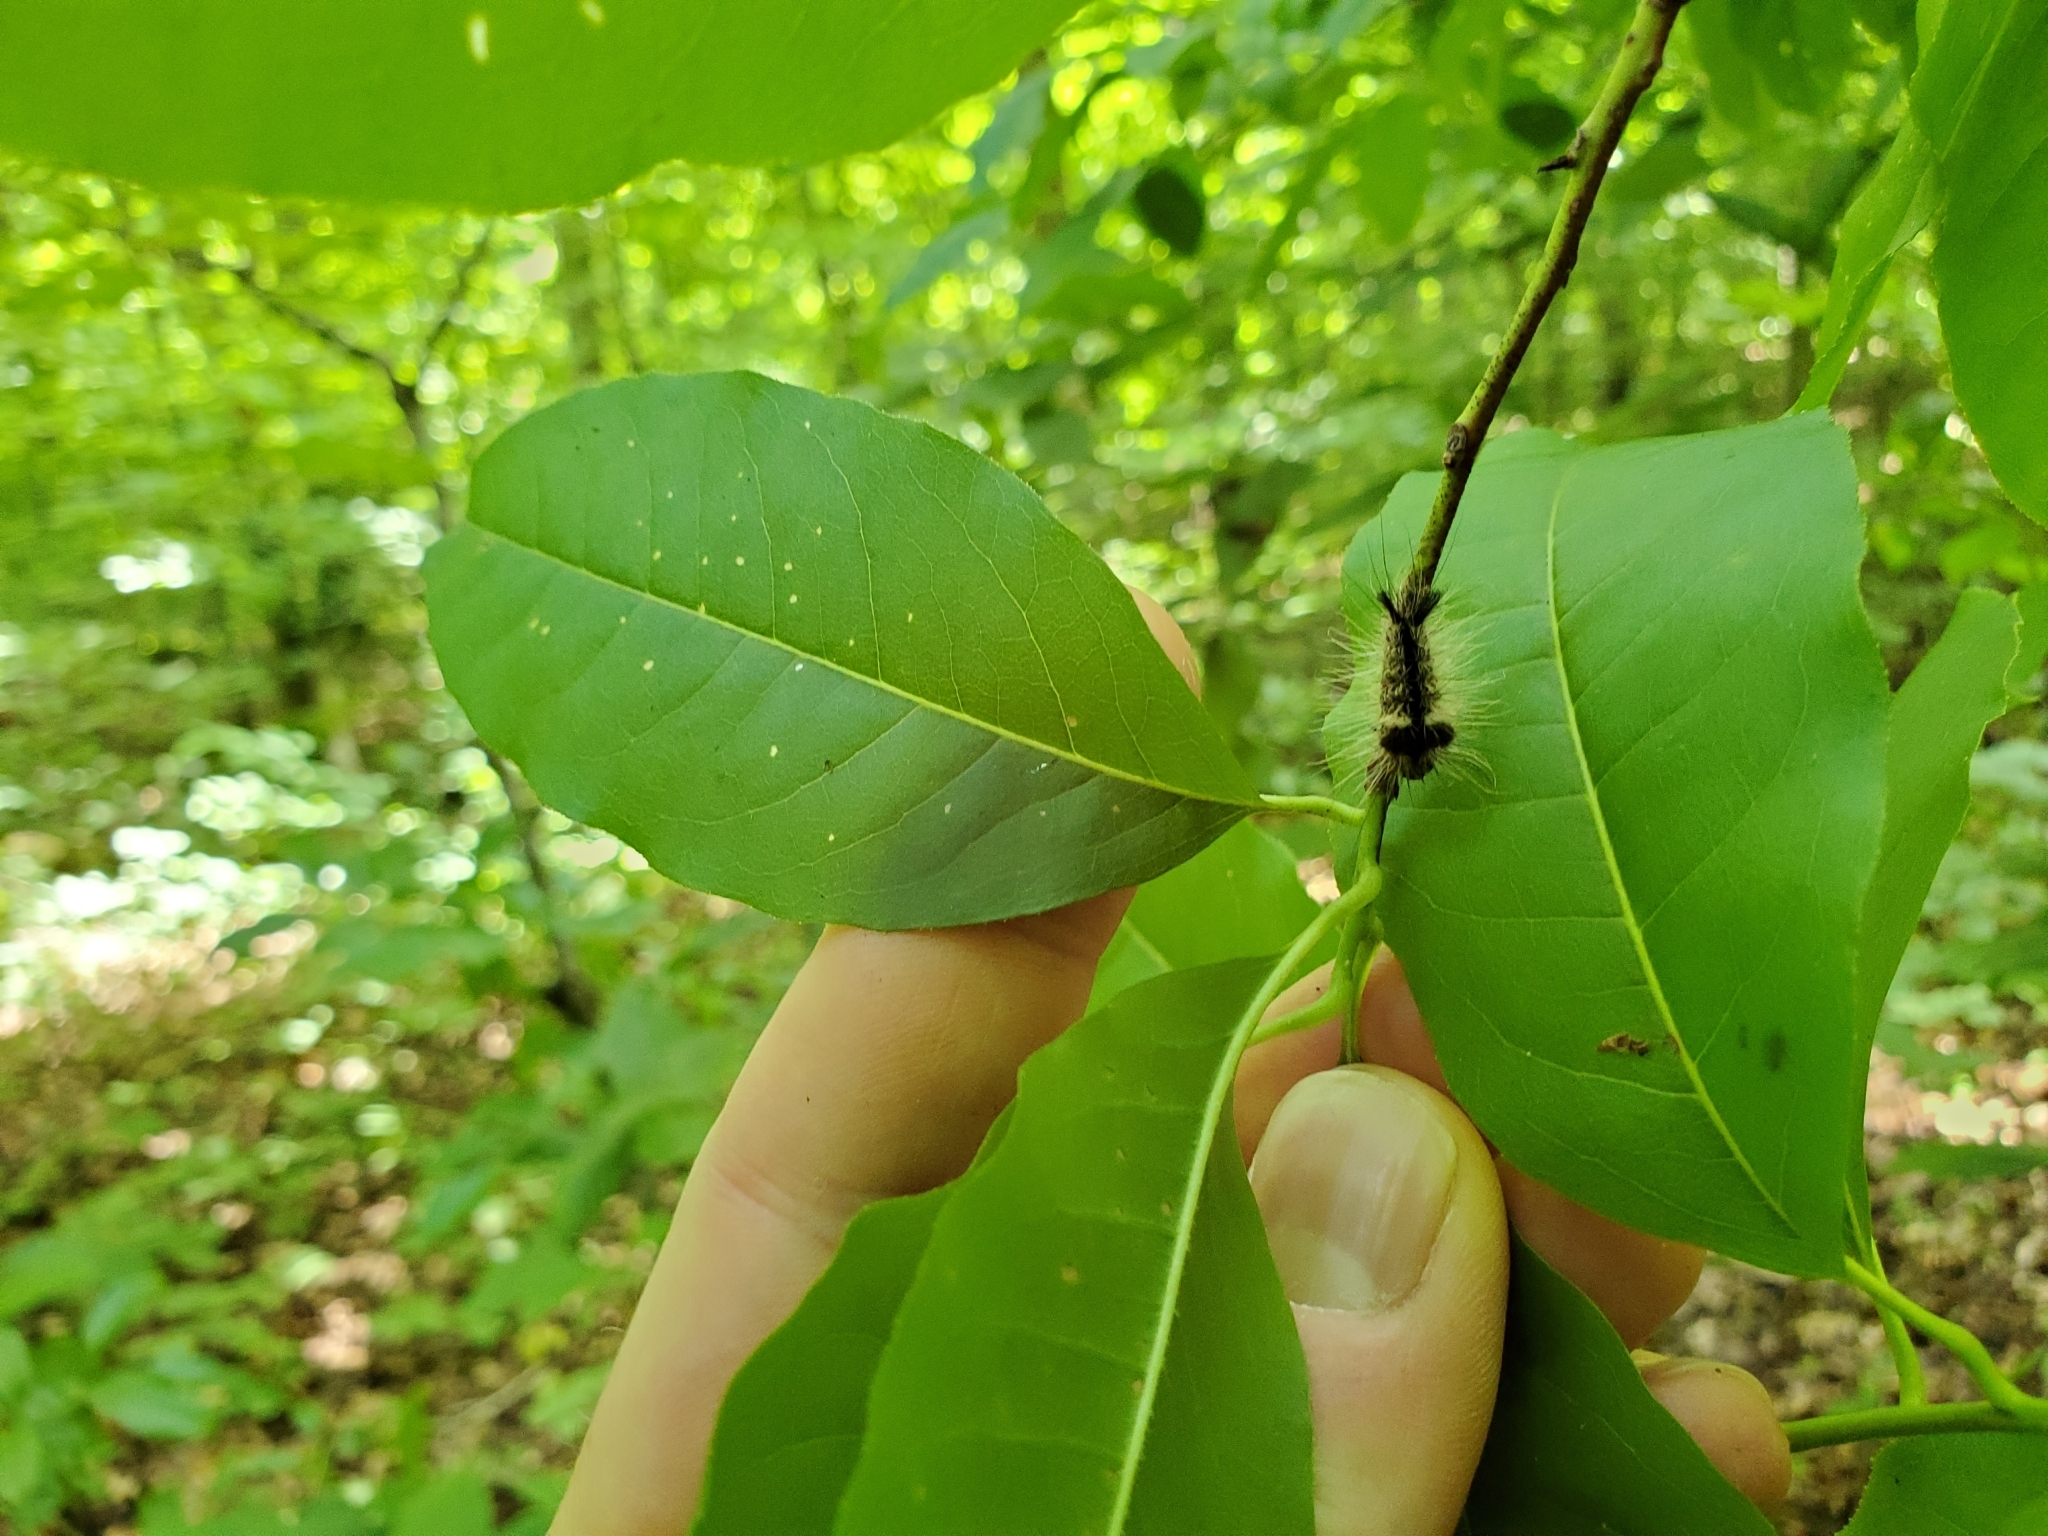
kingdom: Animalia
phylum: Arthropoda
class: Insecta
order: Lepidoptera
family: Noctuidae
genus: Acronicta
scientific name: Acronicta impleta
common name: Powdered dagger
